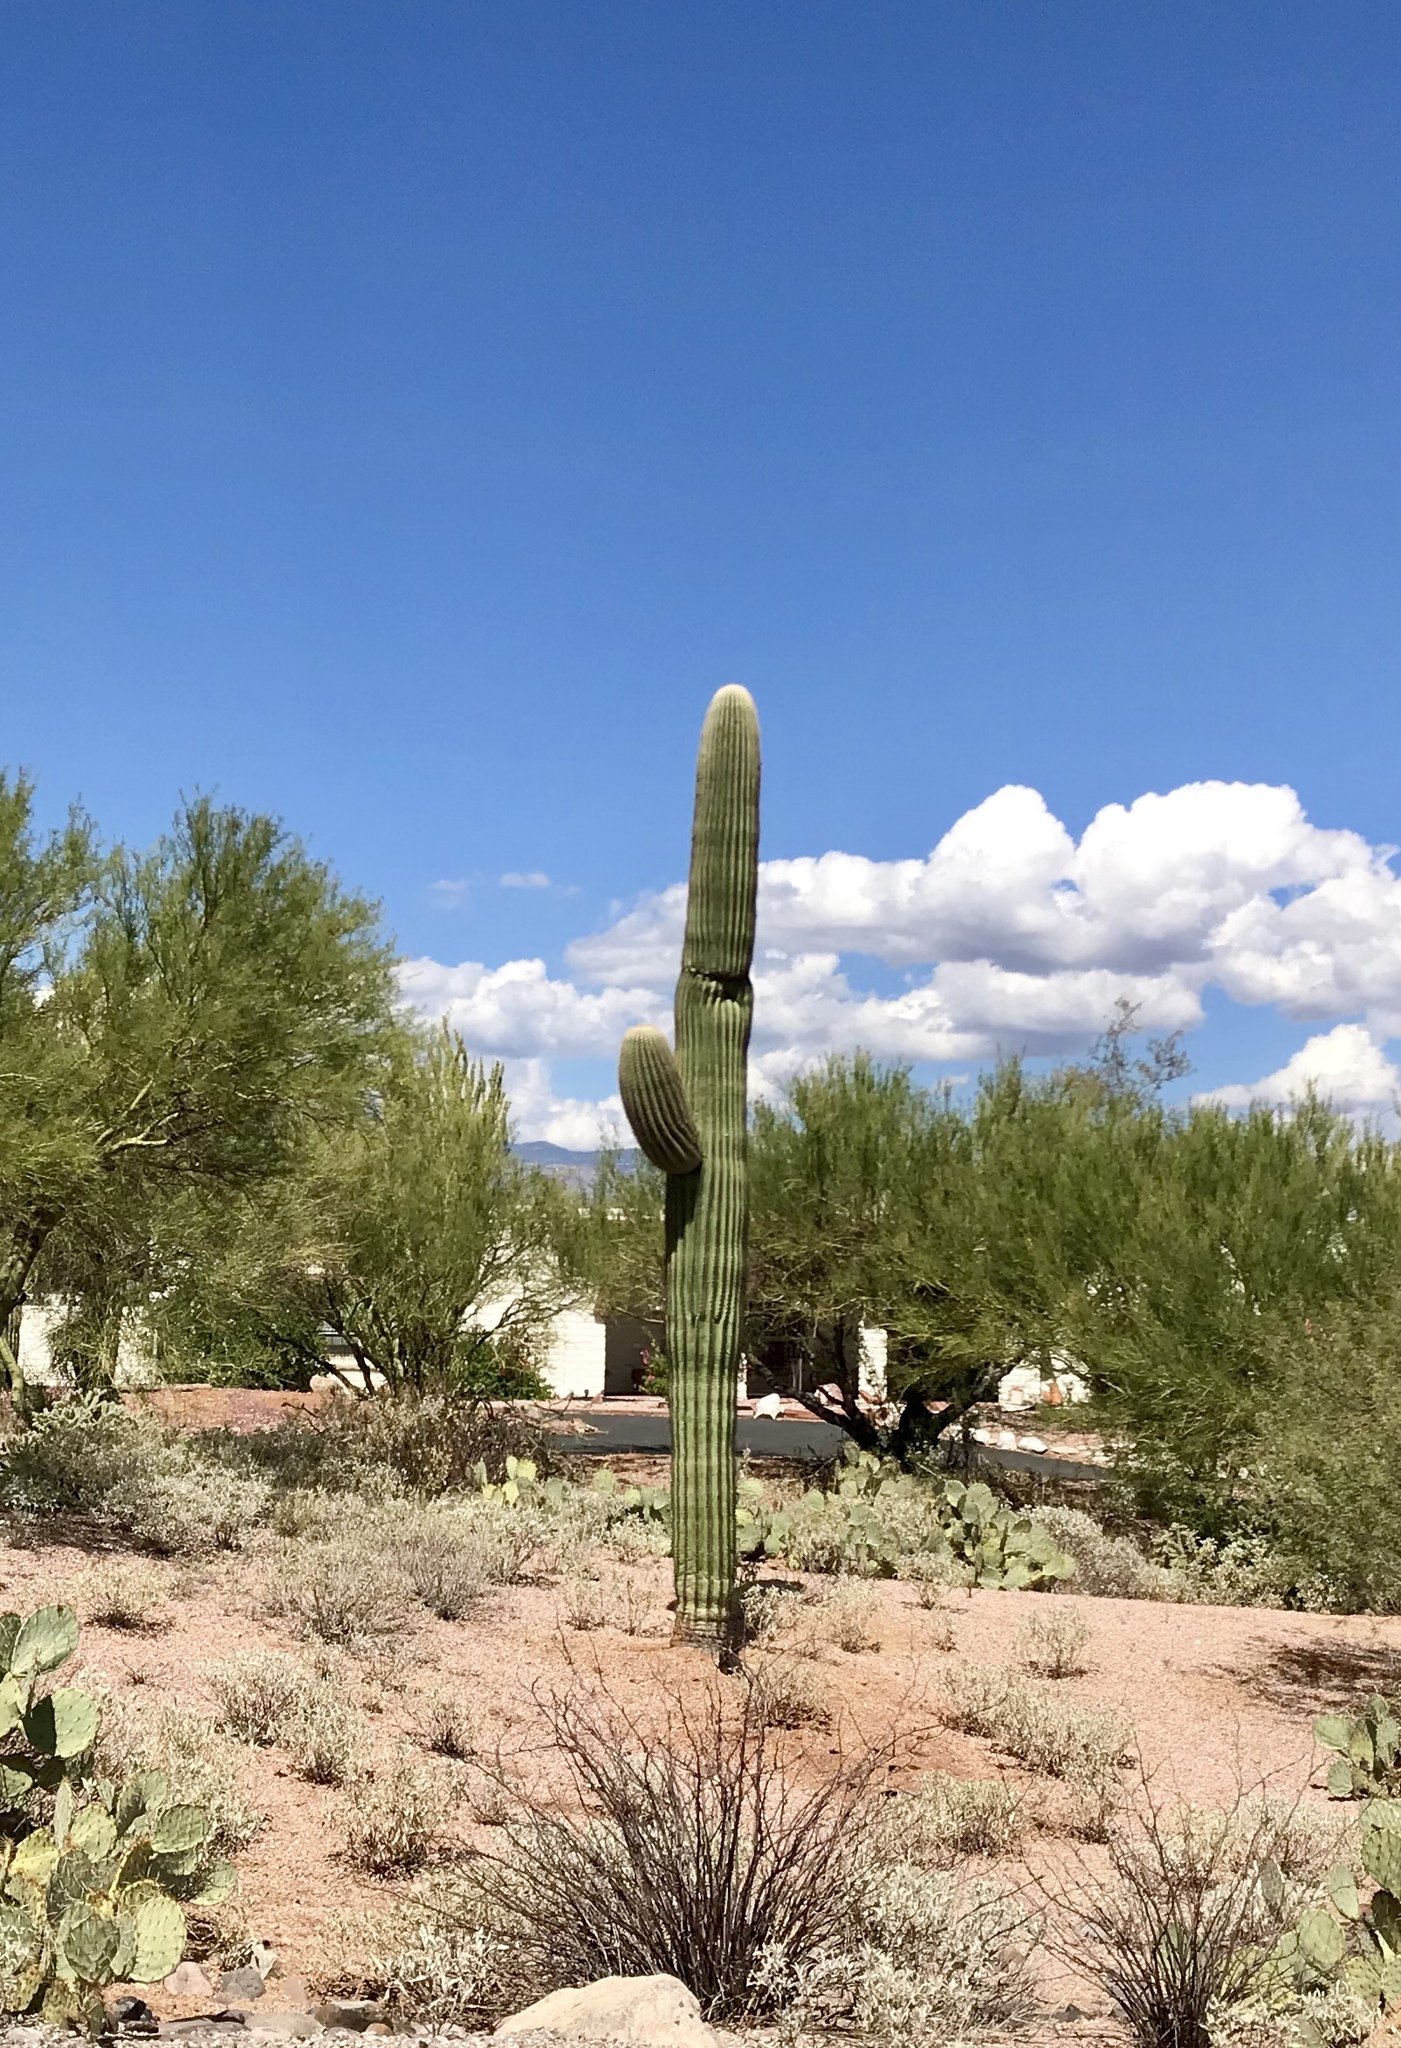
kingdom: Plantae
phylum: Tracheophyta
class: Magnoliopsida
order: Caryophyllales
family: Cactaceae
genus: Carnegiea
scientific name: Carnegiea gigantea
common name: Saguaro
